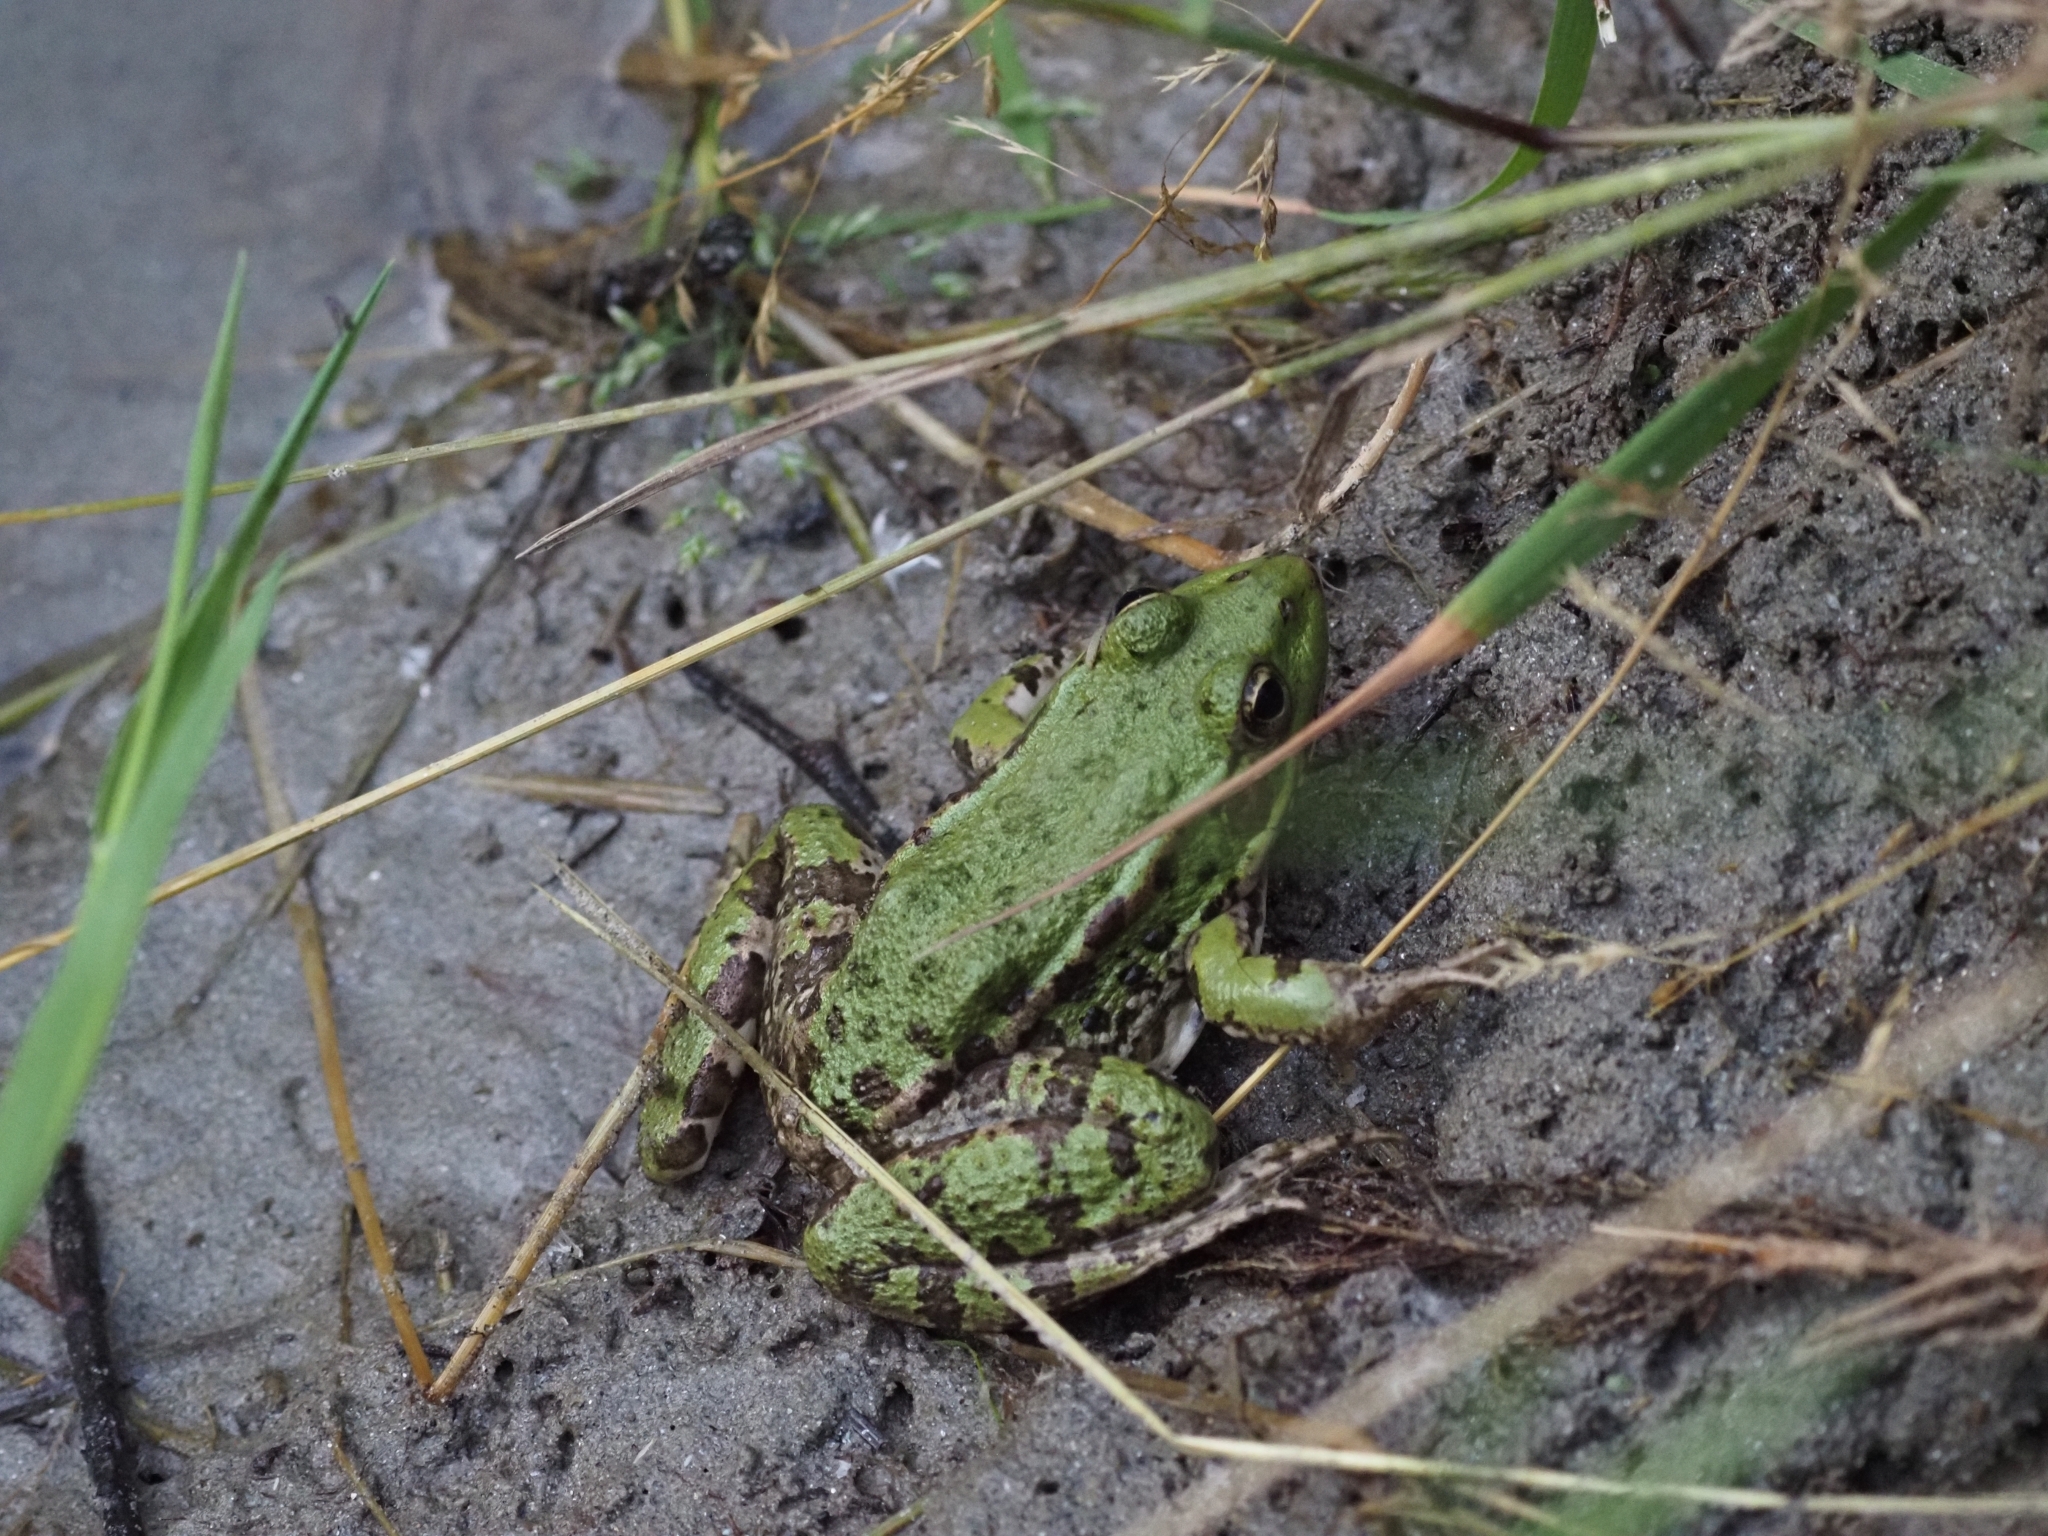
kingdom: Animalia
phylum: Chordata
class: Amphibia
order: Anura
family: Ranidae
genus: Pelophylax
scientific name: Pelophylax
